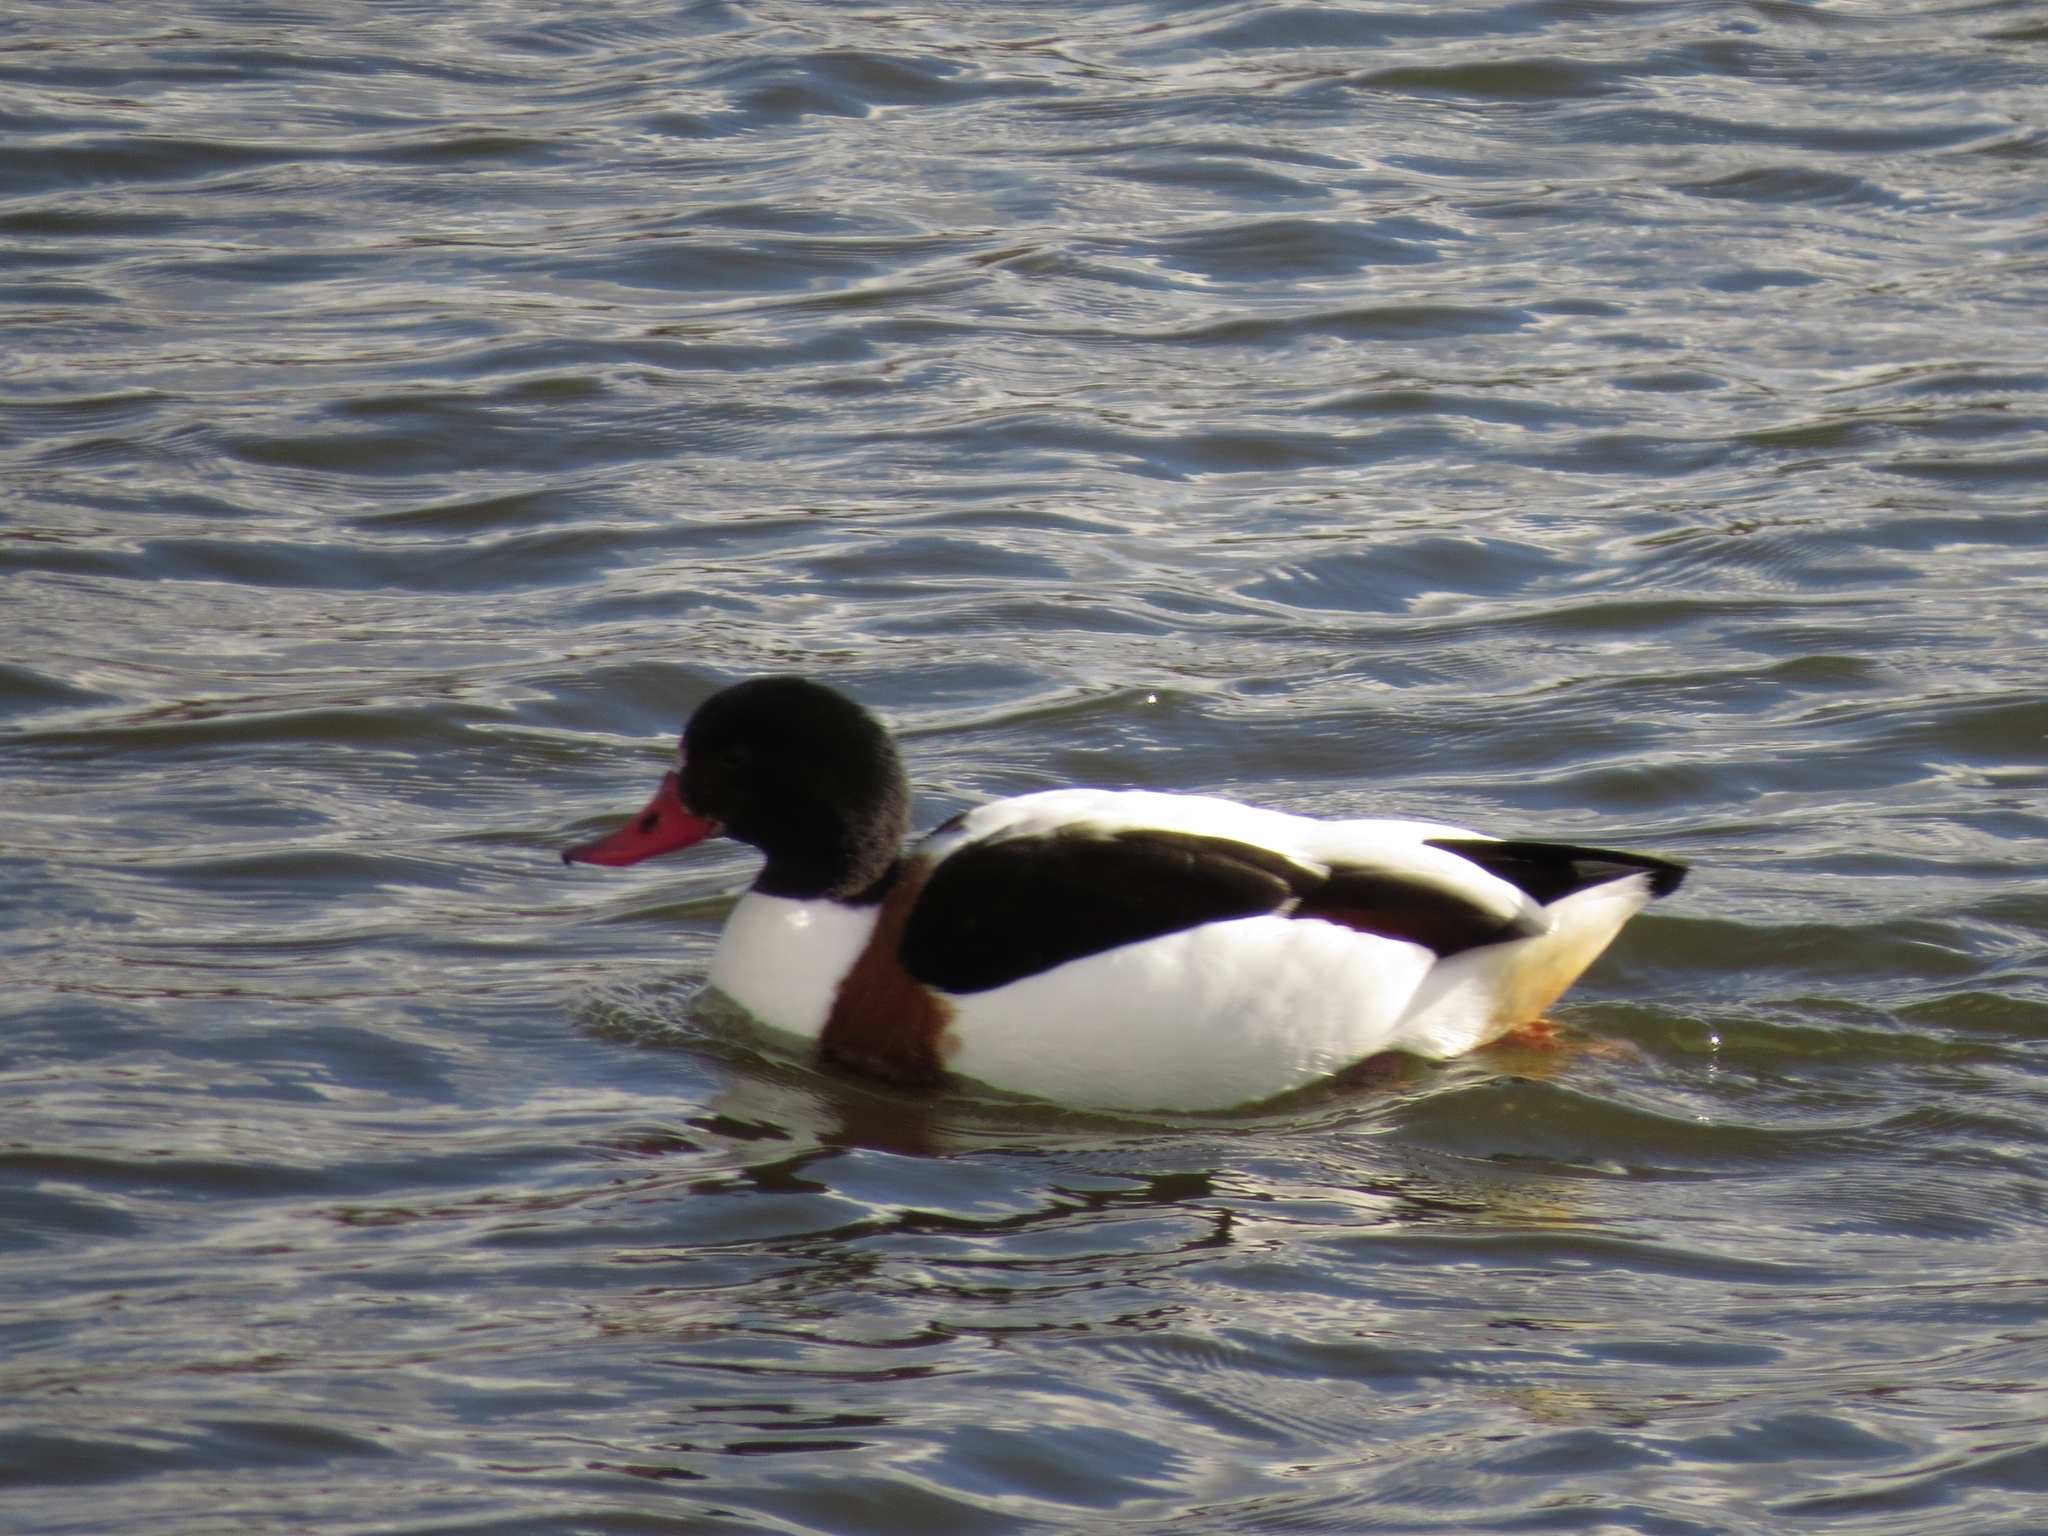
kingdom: Animalia
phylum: Chordata
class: Aves
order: Anseriformes
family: Anatidae
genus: Tadorna
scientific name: Tadorna tadorna
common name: Common shelduck
